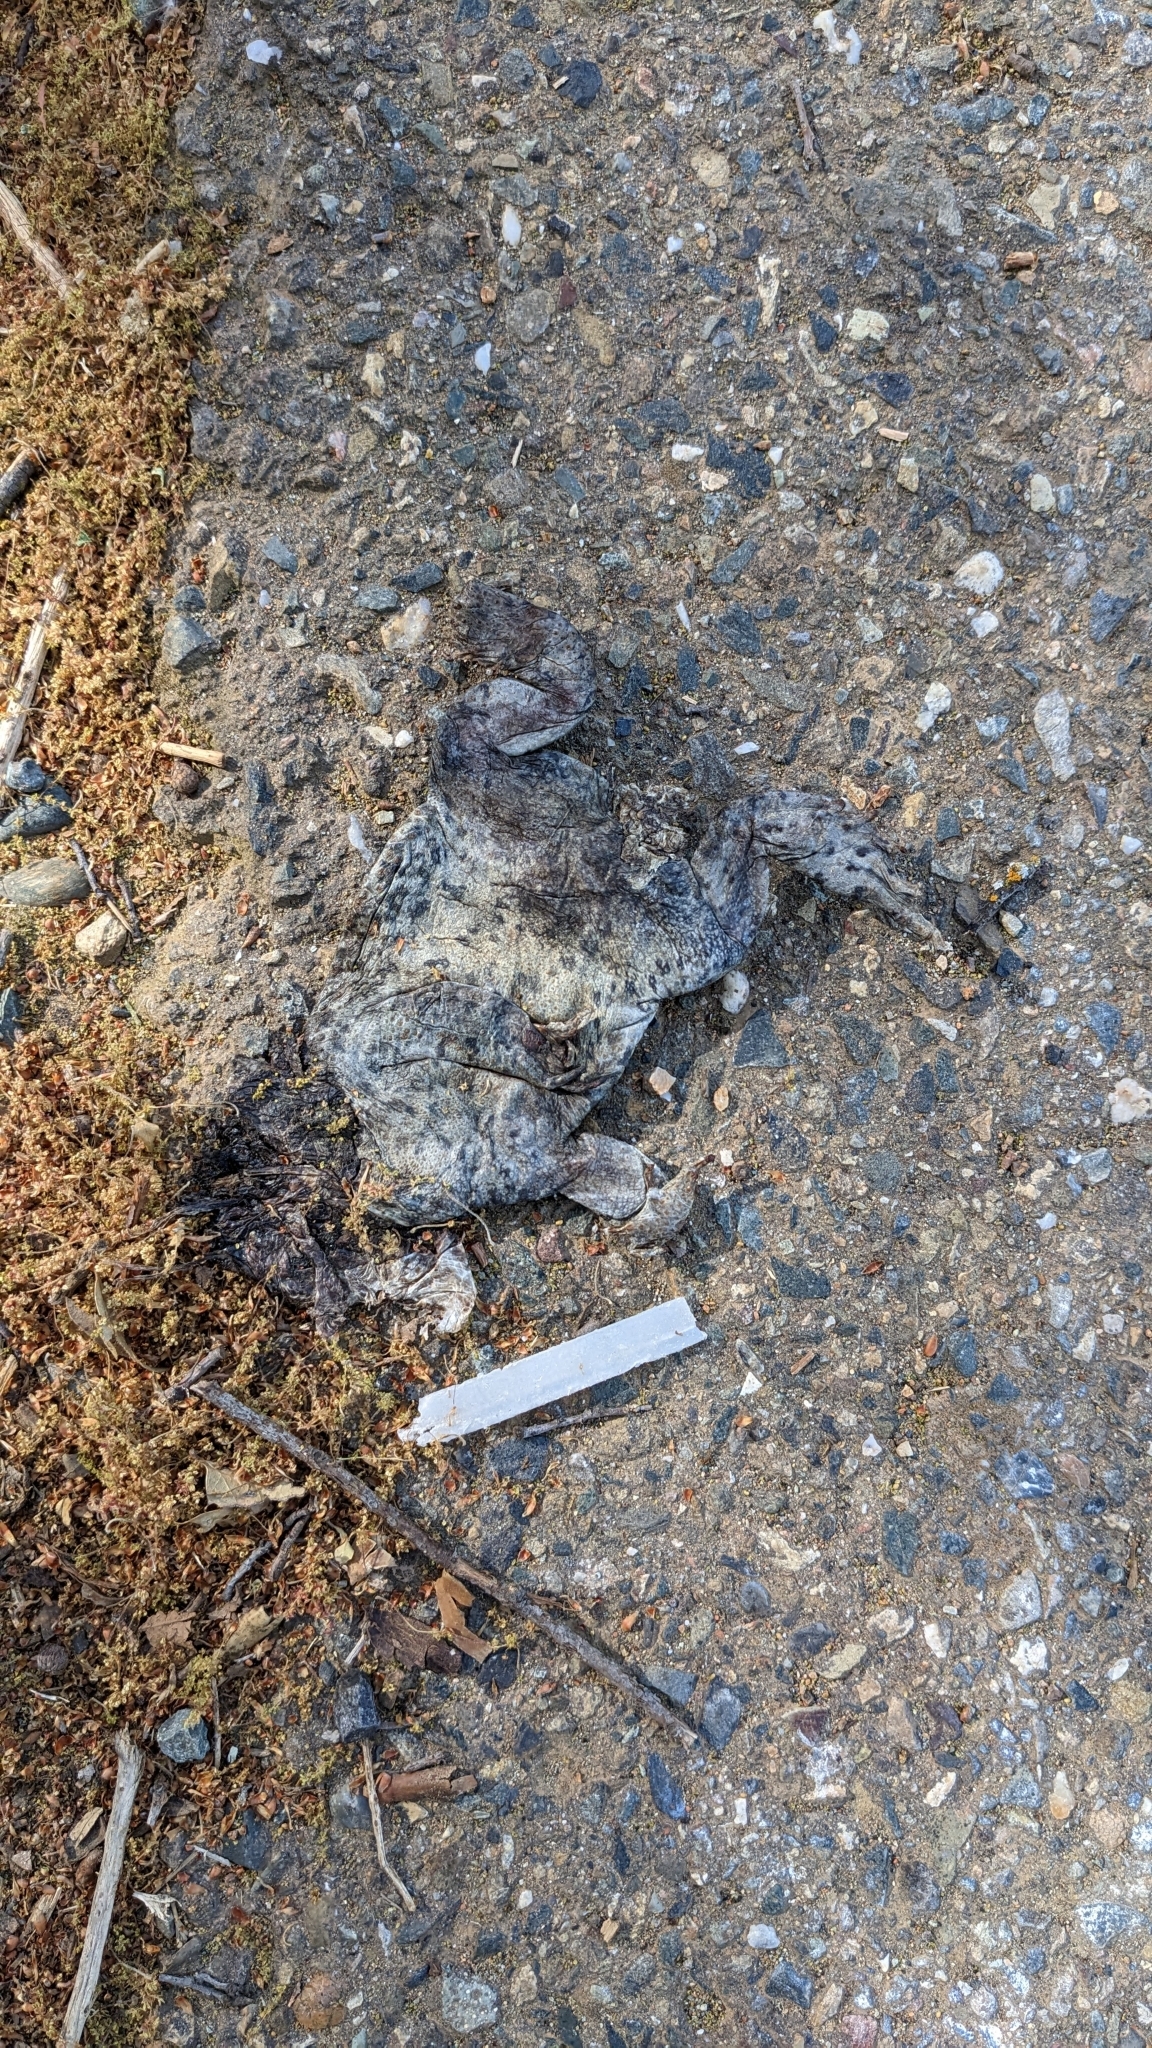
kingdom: Animalia
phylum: Chordata
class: Amphibia
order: Anura
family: Bufonidae
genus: Anaxyrus
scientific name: Anaxyrus boreas
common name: Western toad
